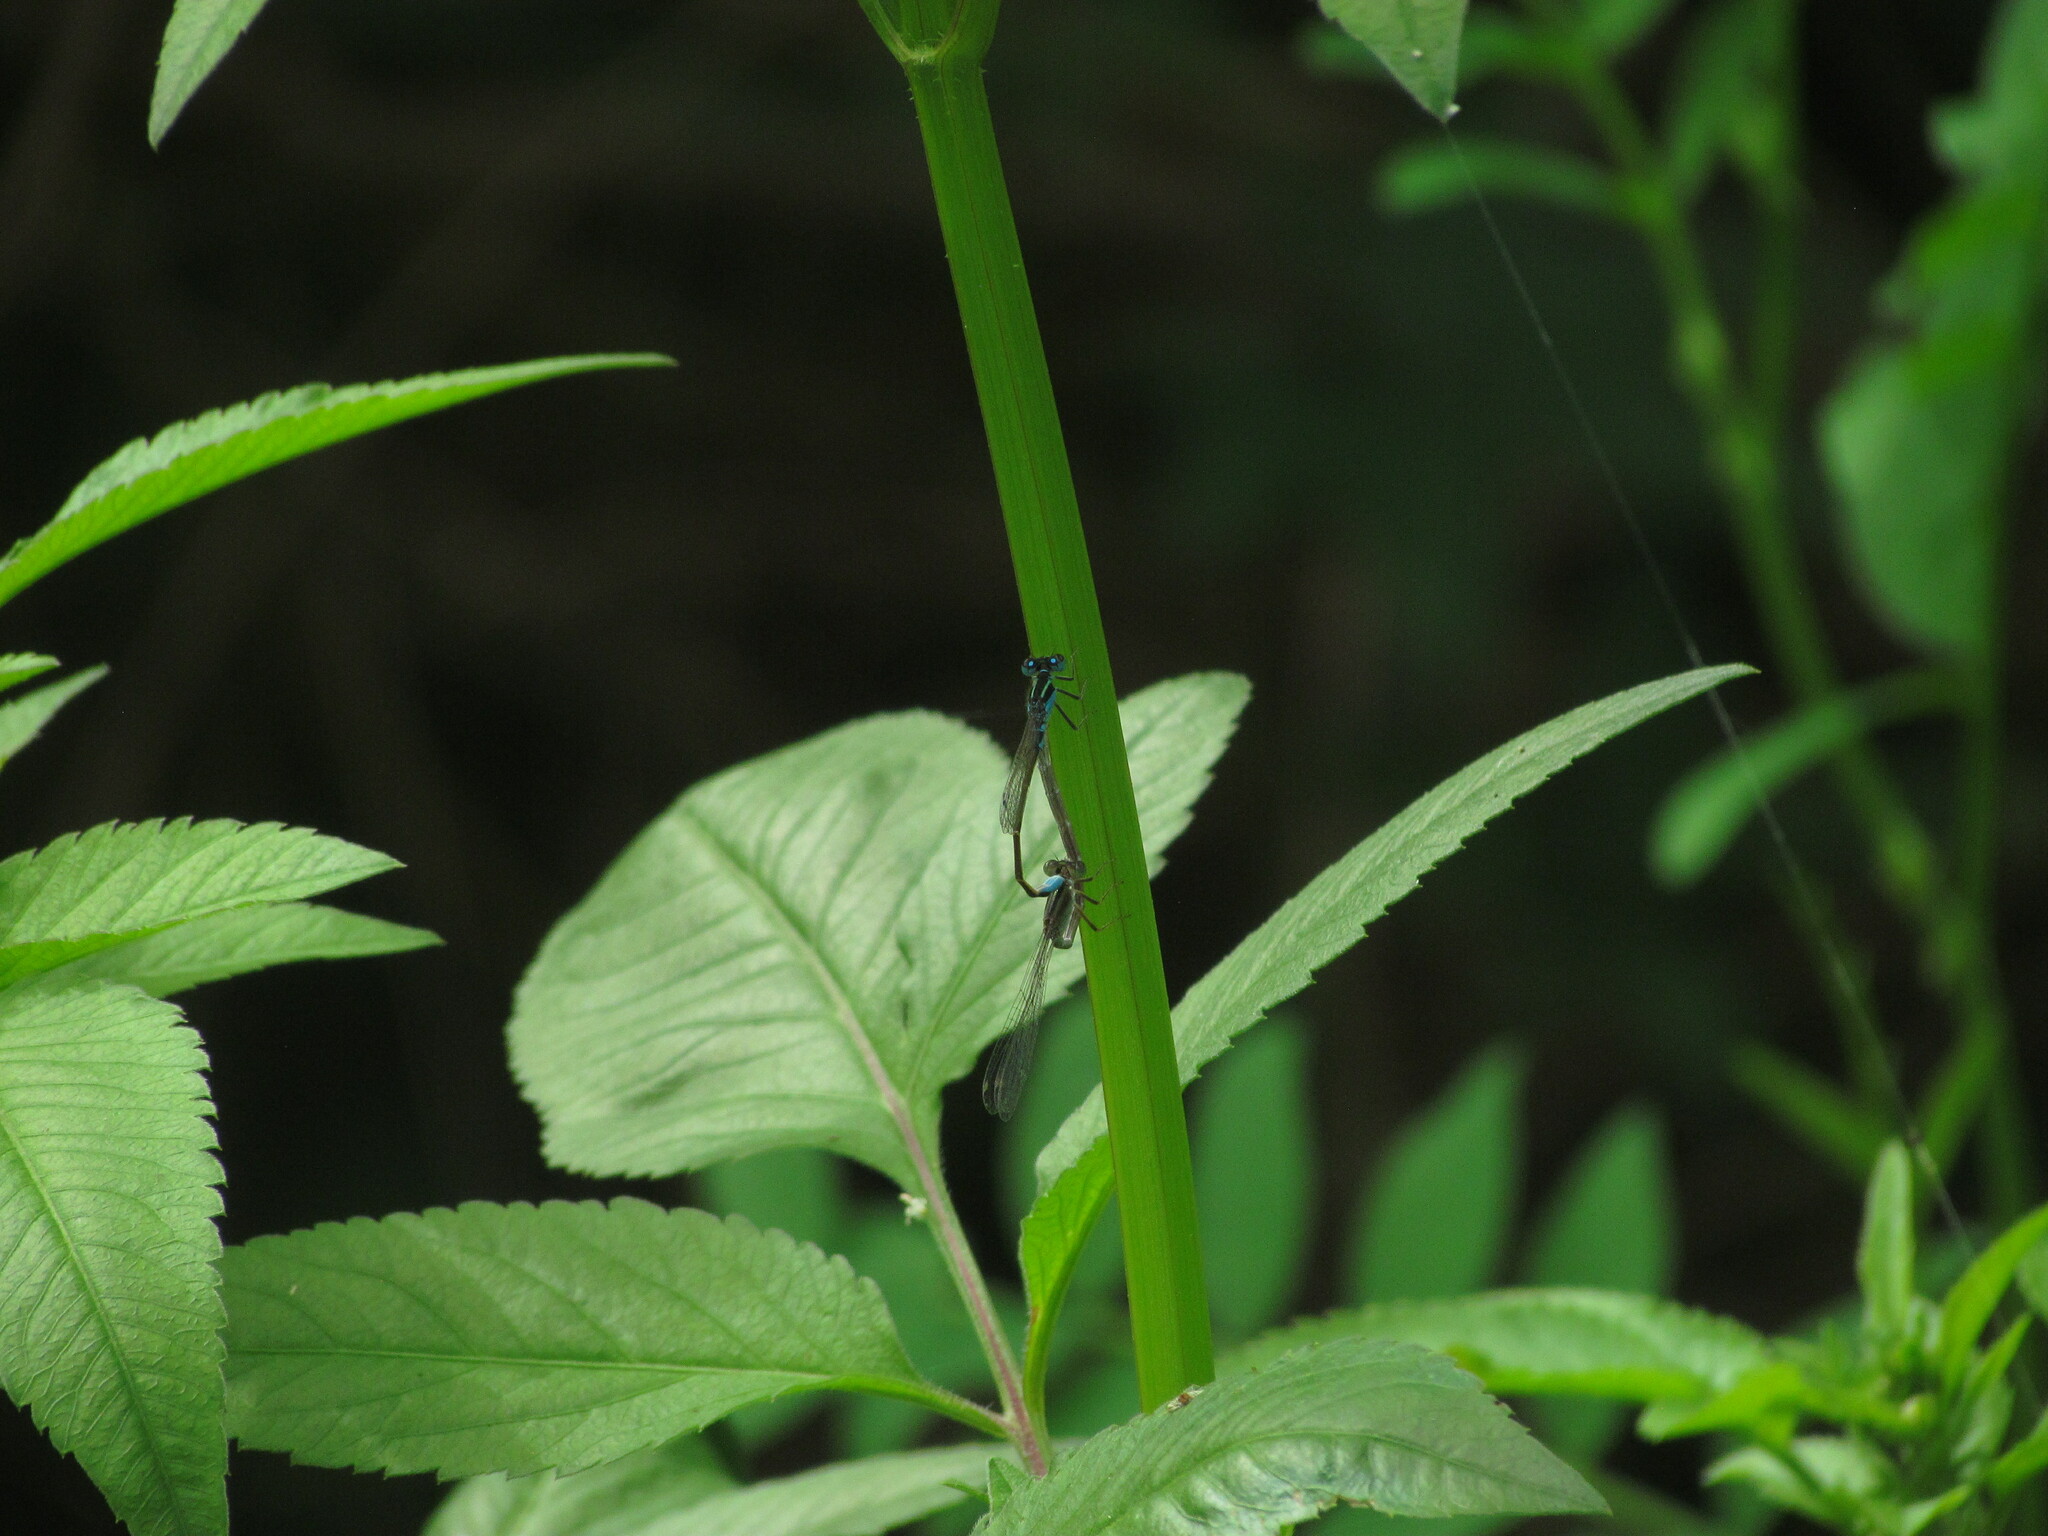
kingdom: Animalia
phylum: Arthropoda
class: Insecta
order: Odonata
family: Coenagrionidae
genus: Ischnura
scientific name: Ischnura fluviatilis
